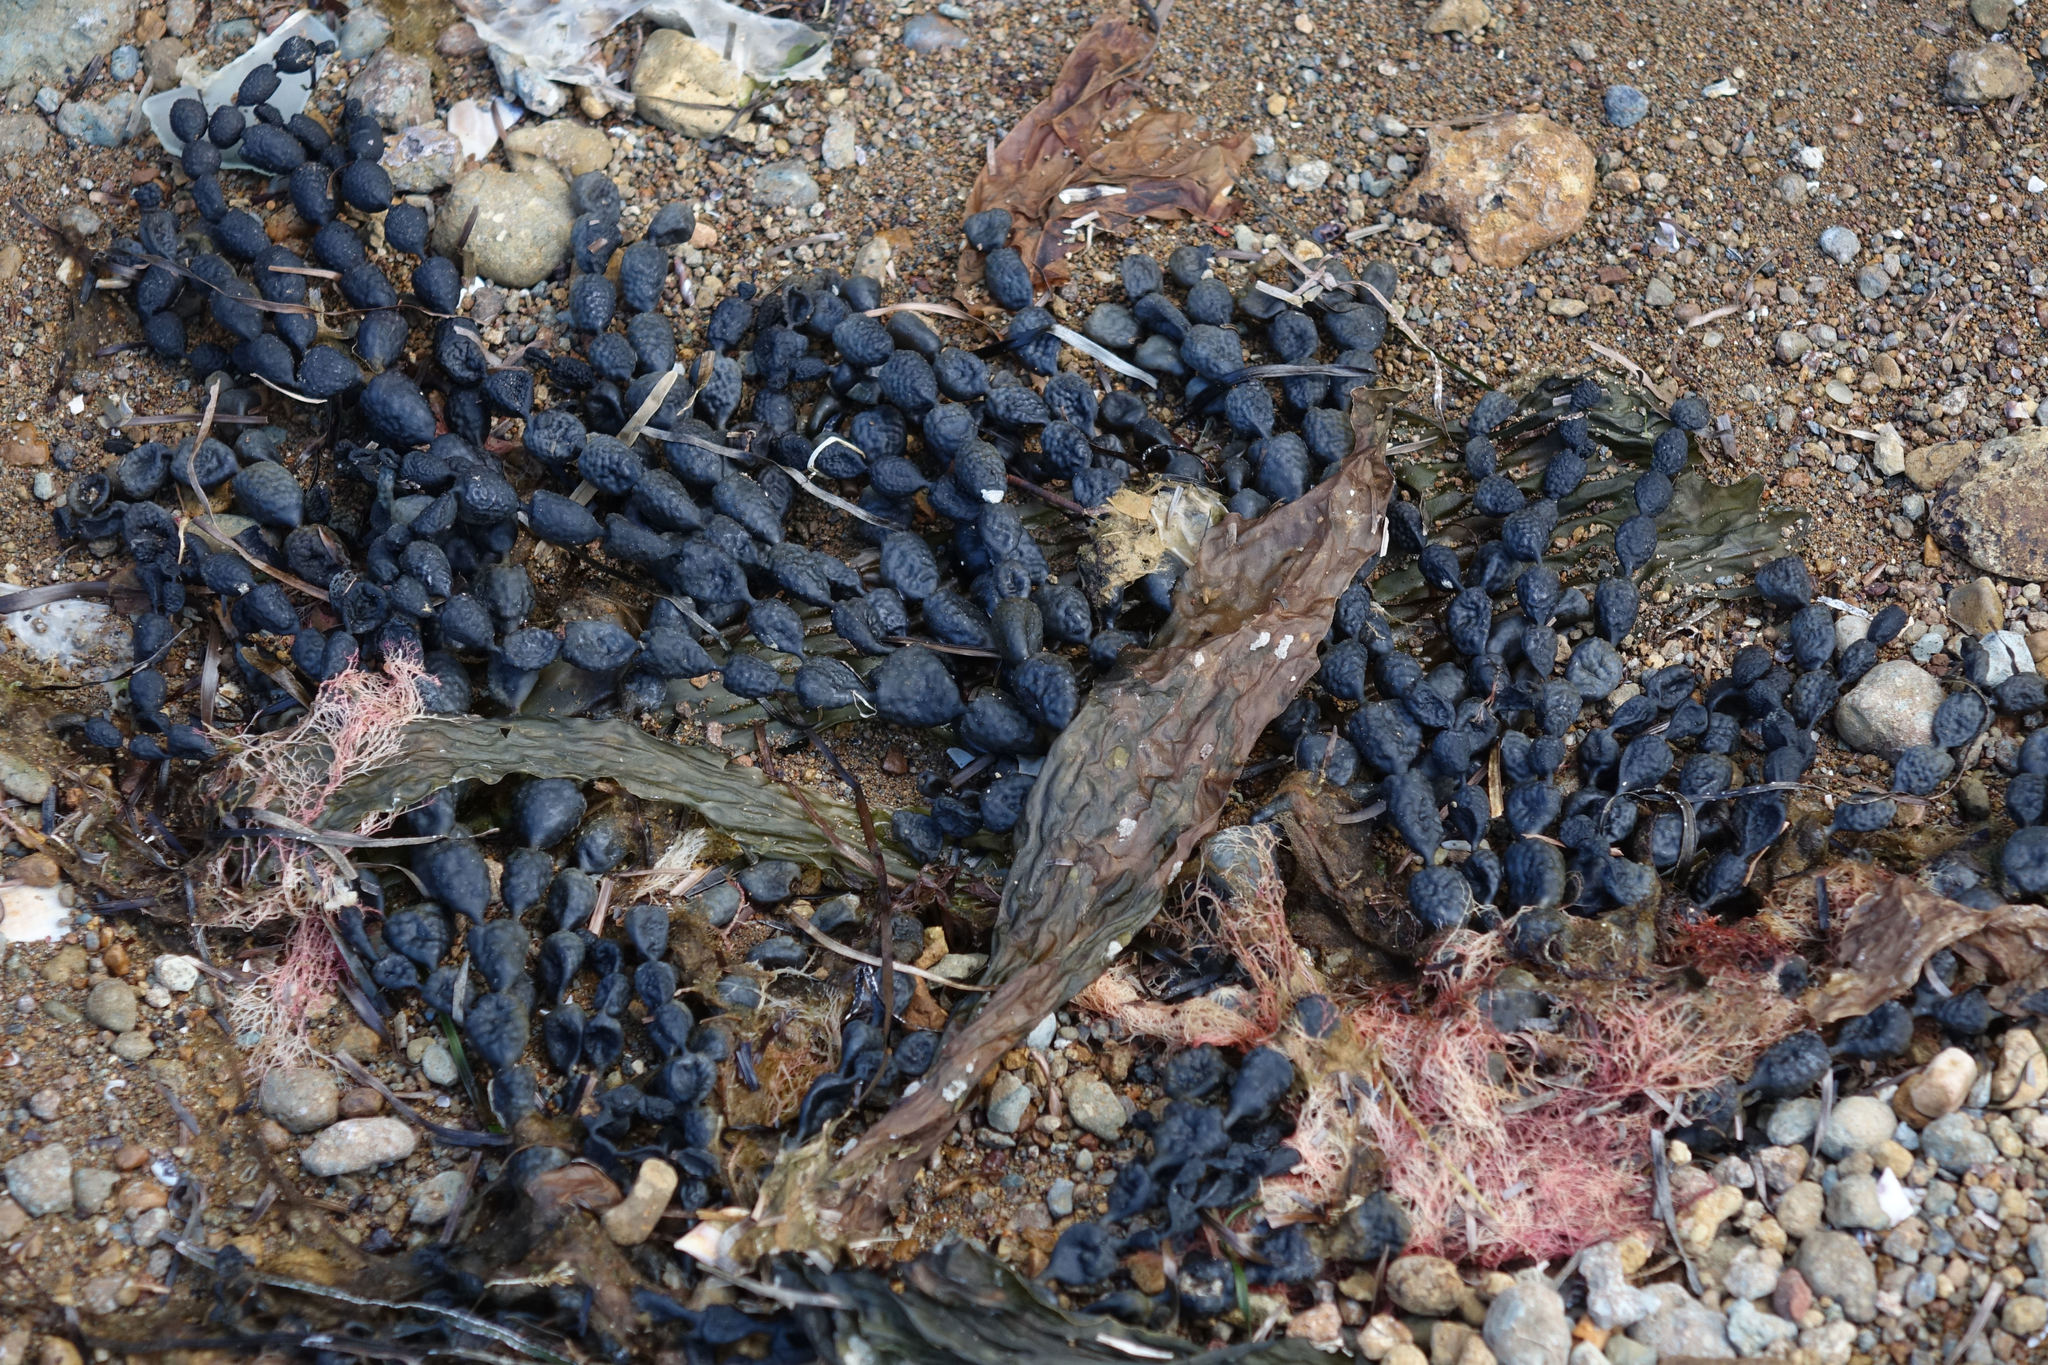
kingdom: Chromista
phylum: Ochrophyta
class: Phaeophyceae
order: Fucales
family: Hormosiraceae
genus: Hormosira
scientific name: Hormosira banksii
